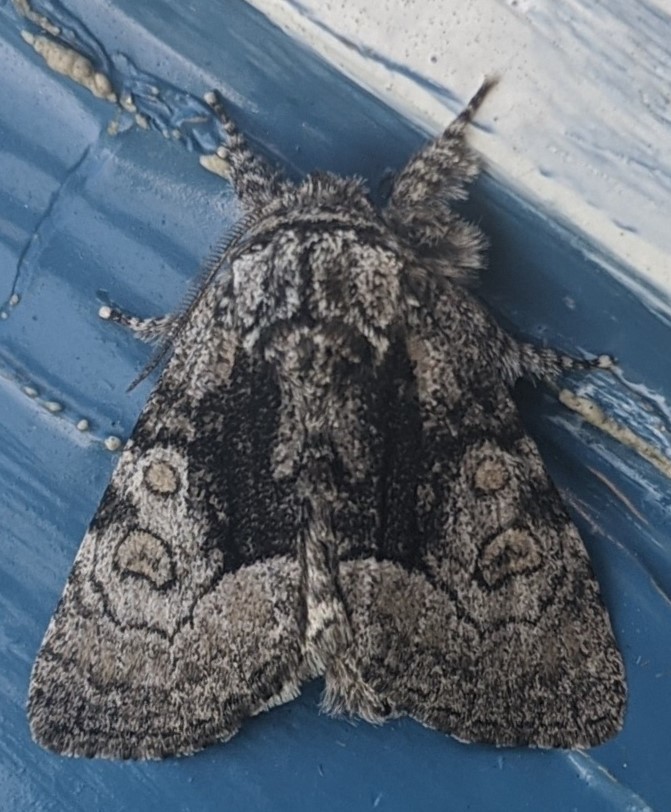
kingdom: Animalia
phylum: Arthropoda
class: Insecta
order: Lepidoptera
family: Noctuidae
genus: Raphia
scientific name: Raphia frater
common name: Brother
